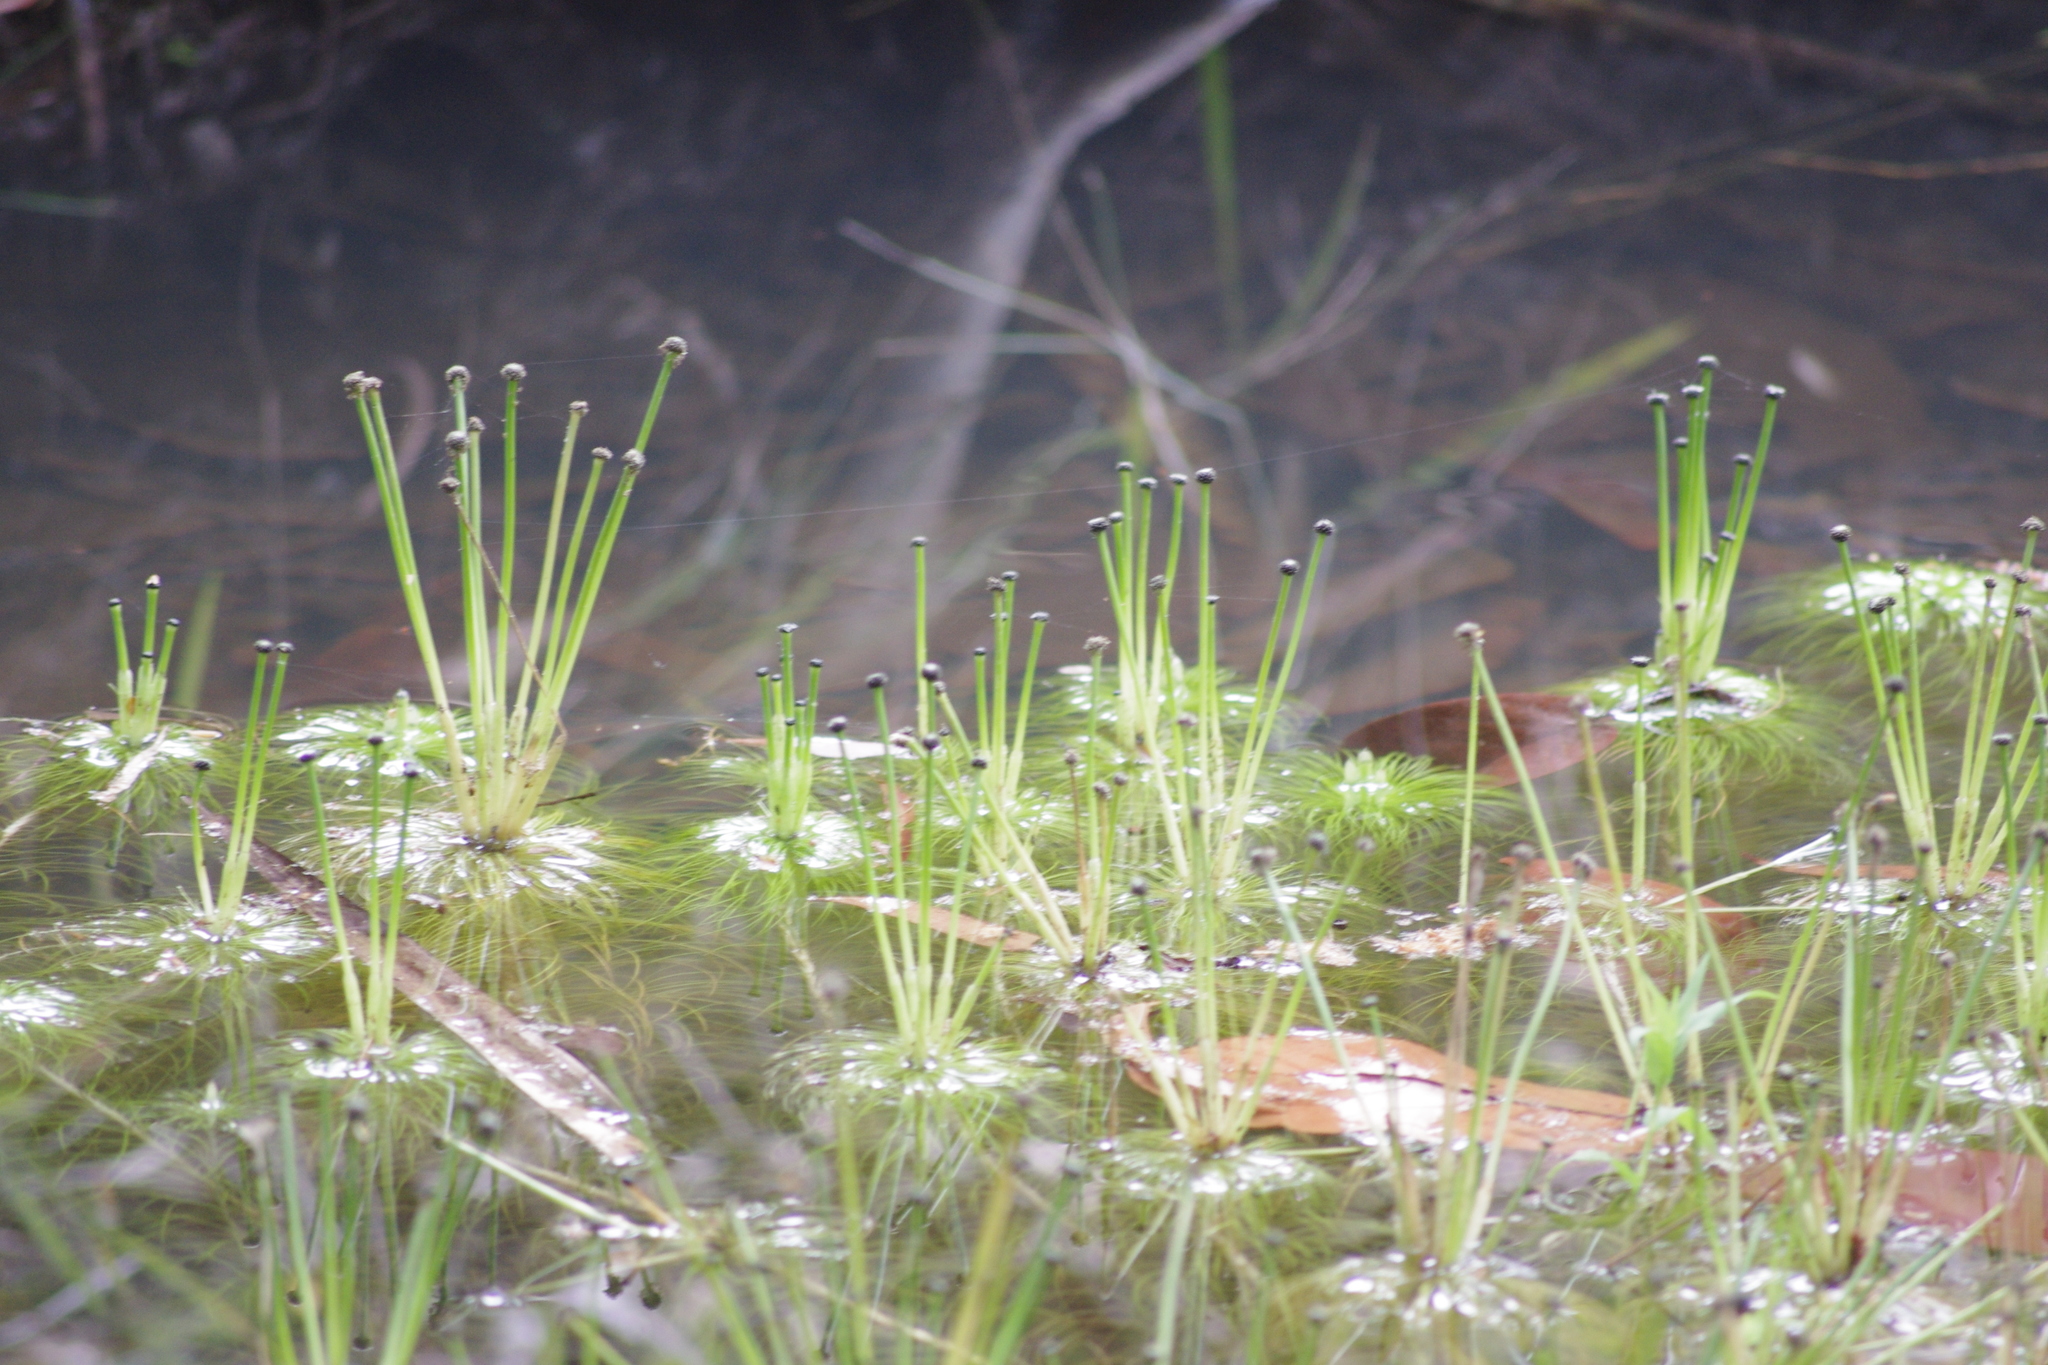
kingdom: Plantae
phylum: Tracheophyta
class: Liliopsida
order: Poales
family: Eriocaulaceae
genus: Eriocaulon
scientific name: Eriocaulon setaceum
